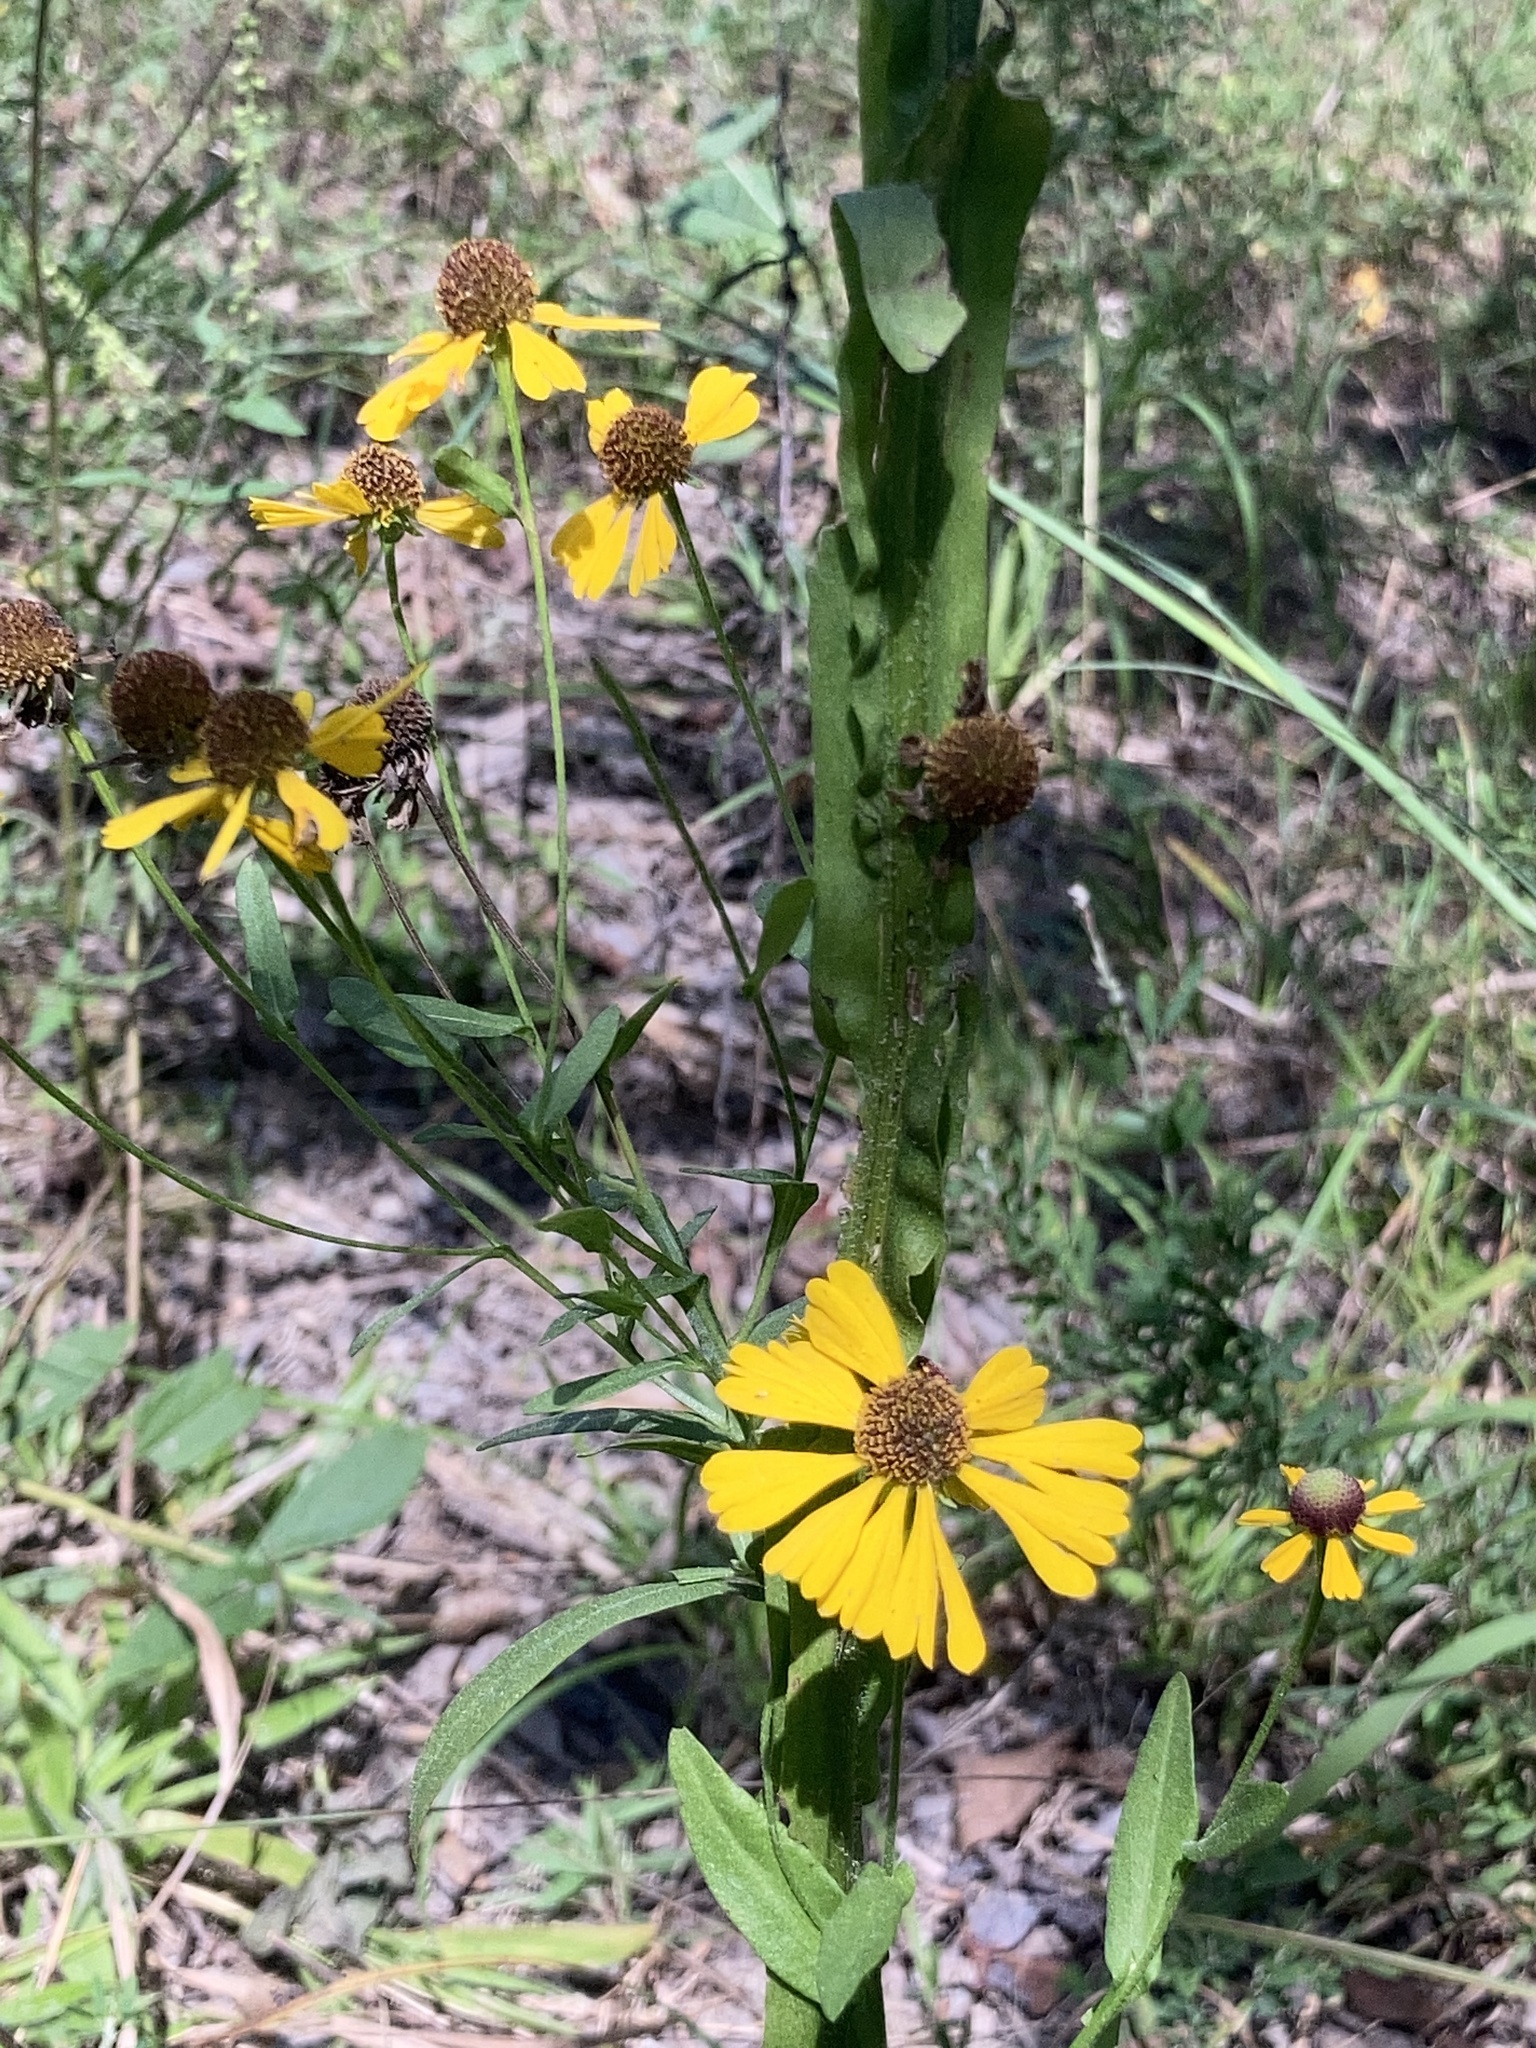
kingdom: Plantae
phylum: Tracheophyta
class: Magnoliopsida
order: Asterales
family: Asteraceae
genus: Helenium
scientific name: Helenium flexuosum
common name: Naked-flowered sneezeweed
